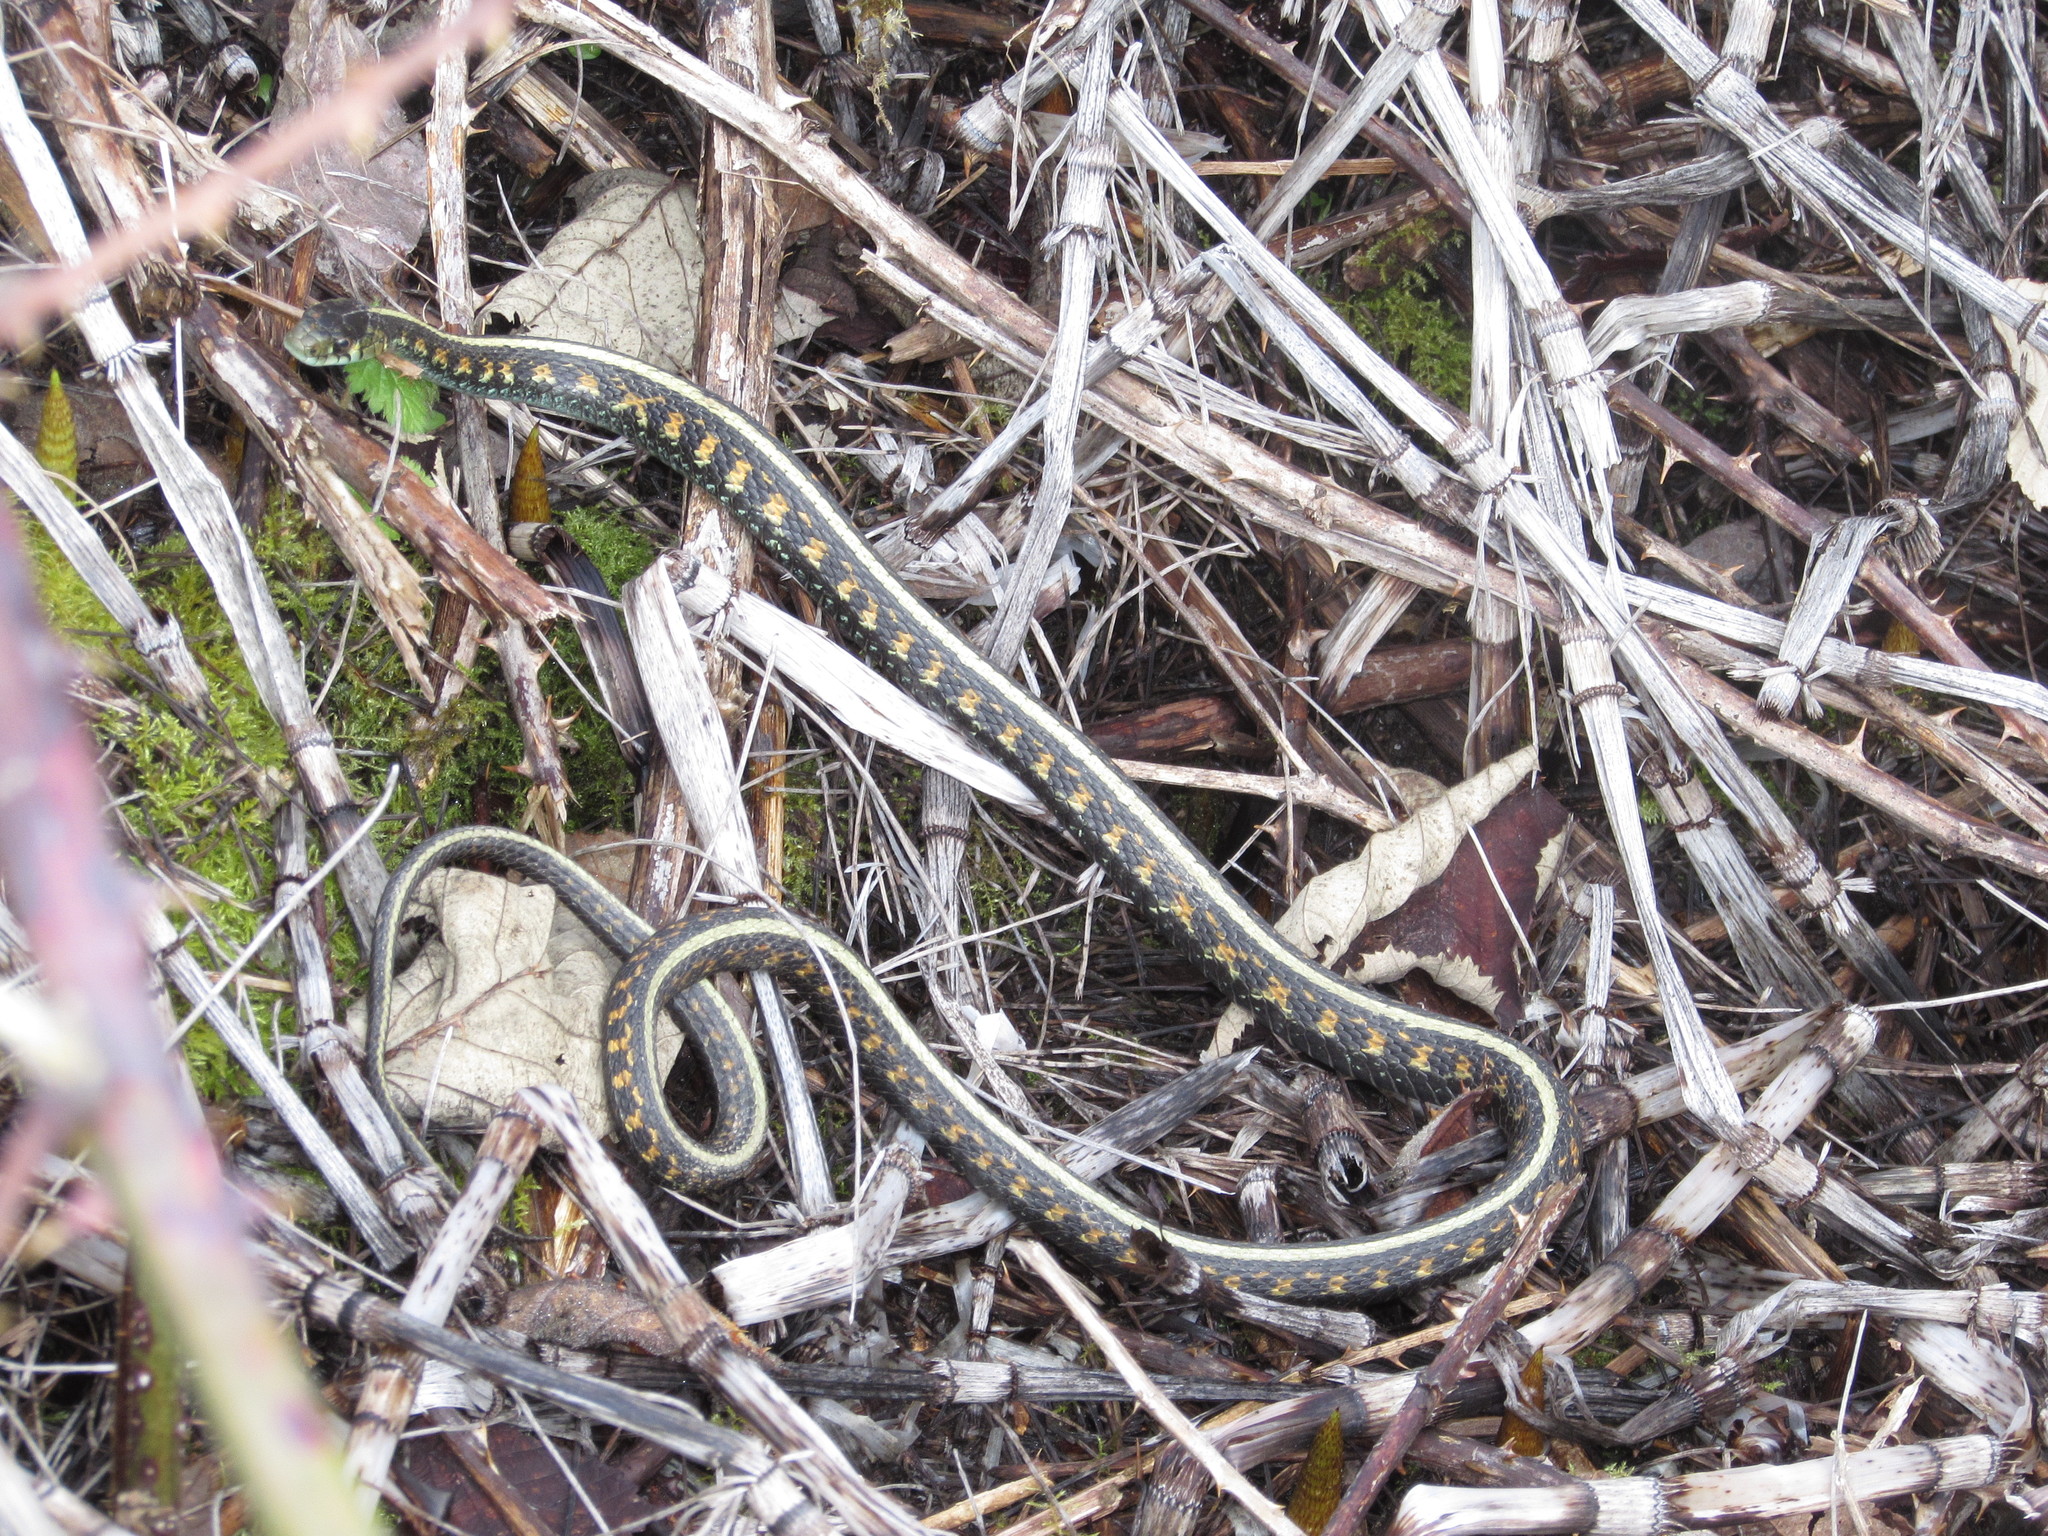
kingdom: Animalia
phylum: Chordata
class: Squamata
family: Colubridae
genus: Thamnophis
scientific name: Thamnophis sirtalis
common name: Common garter snake
